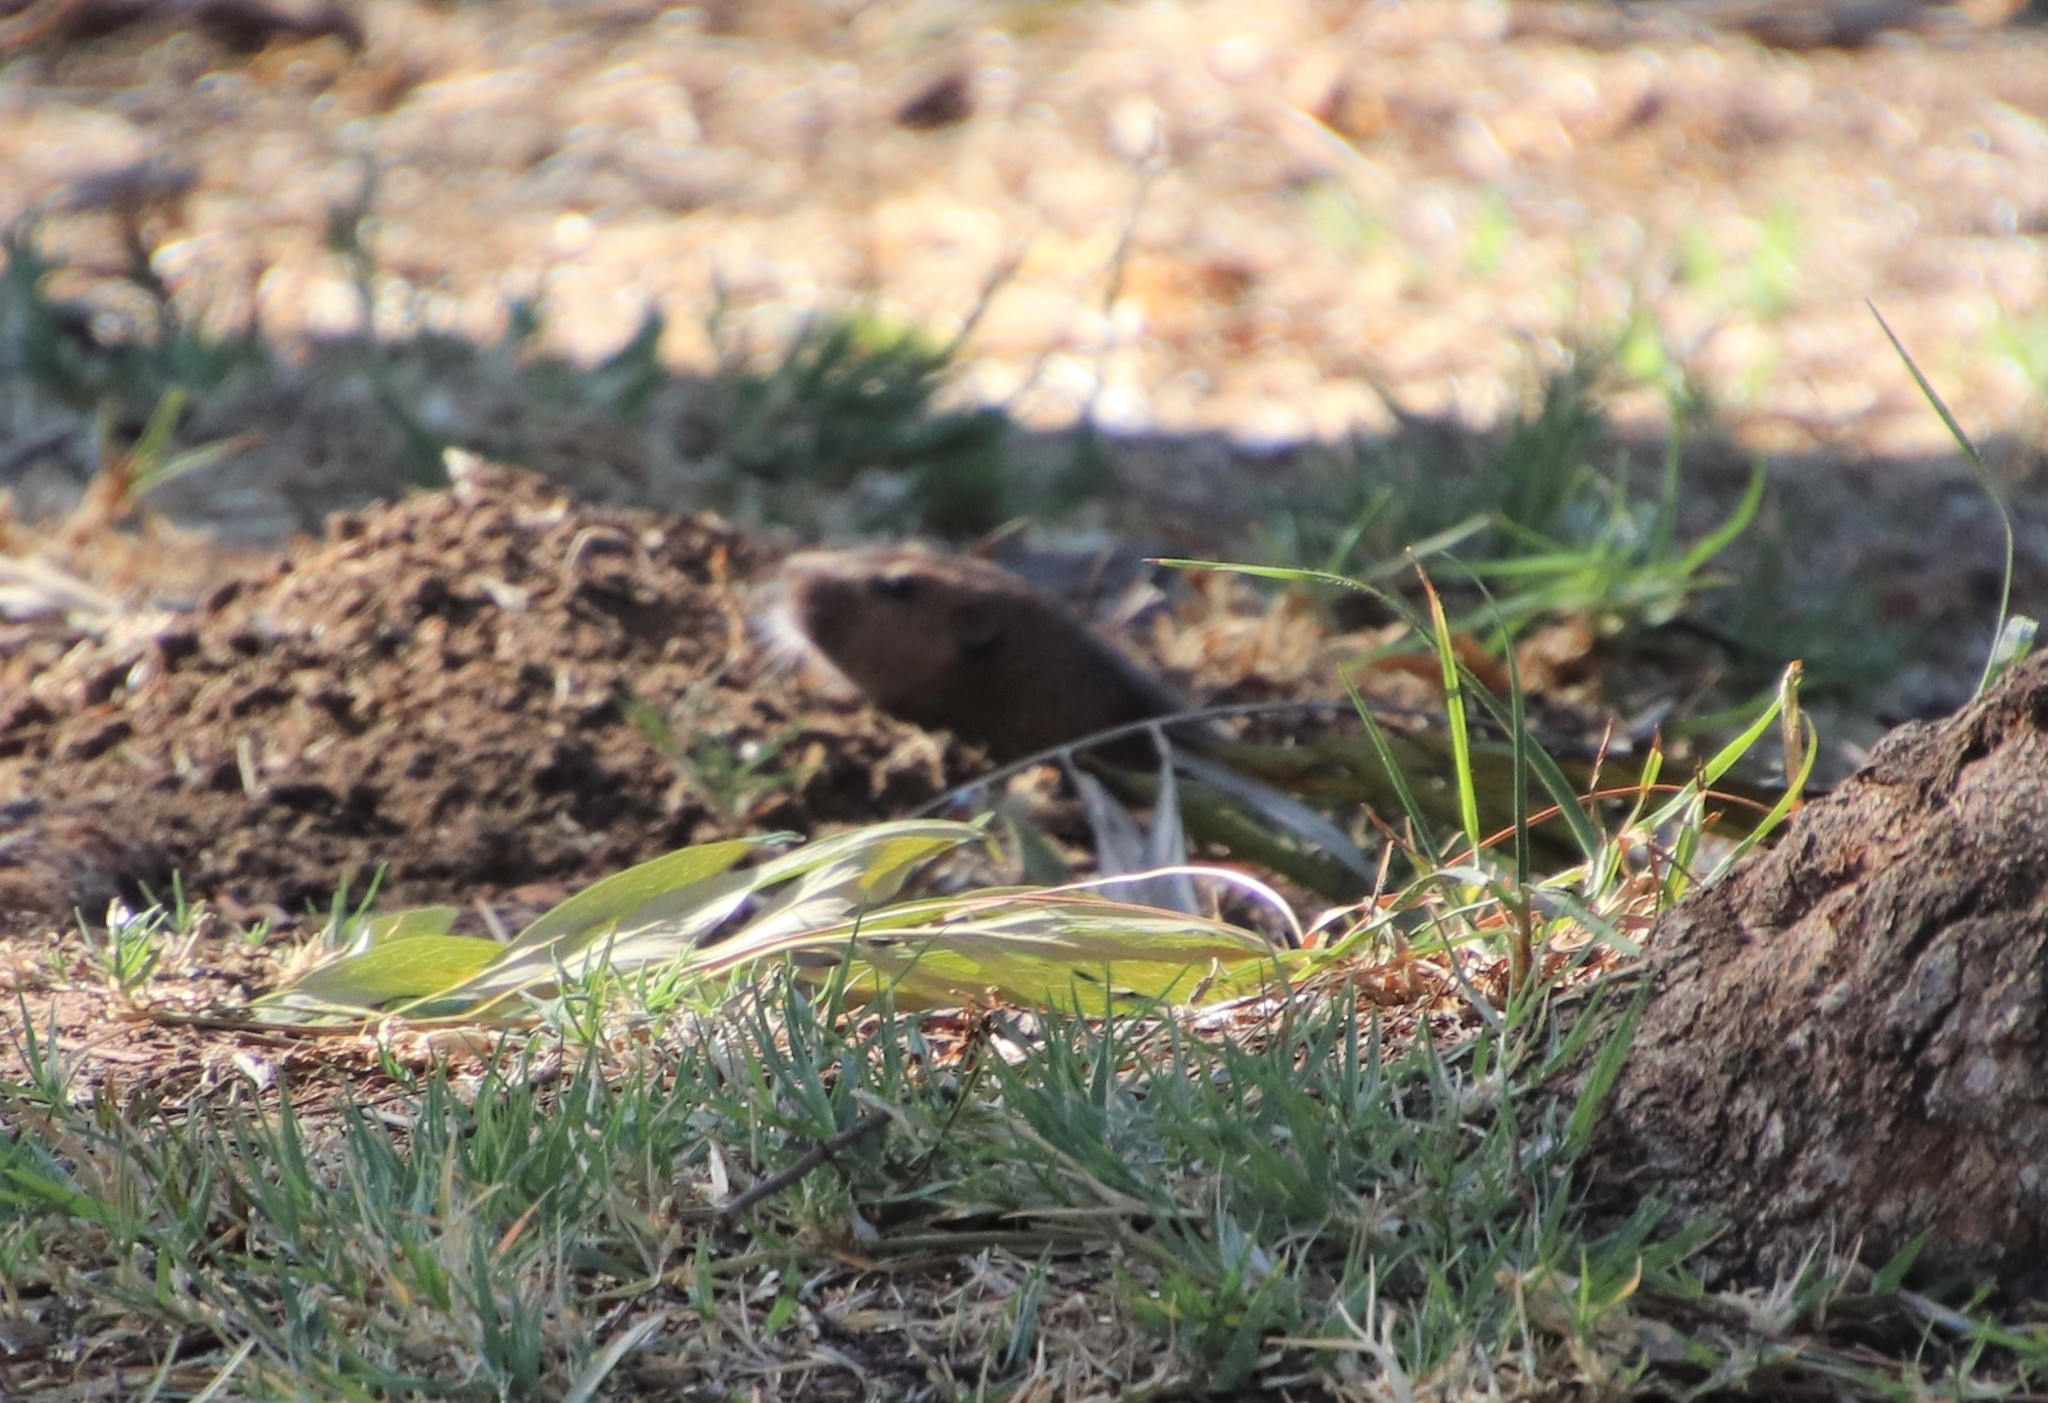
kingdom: Animalia
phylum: Chordata
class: Mammalia
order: Rodentia
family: Geomyidae
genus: Thomomys
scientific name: Thomomys bottae
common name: Botta's pocket gopher
